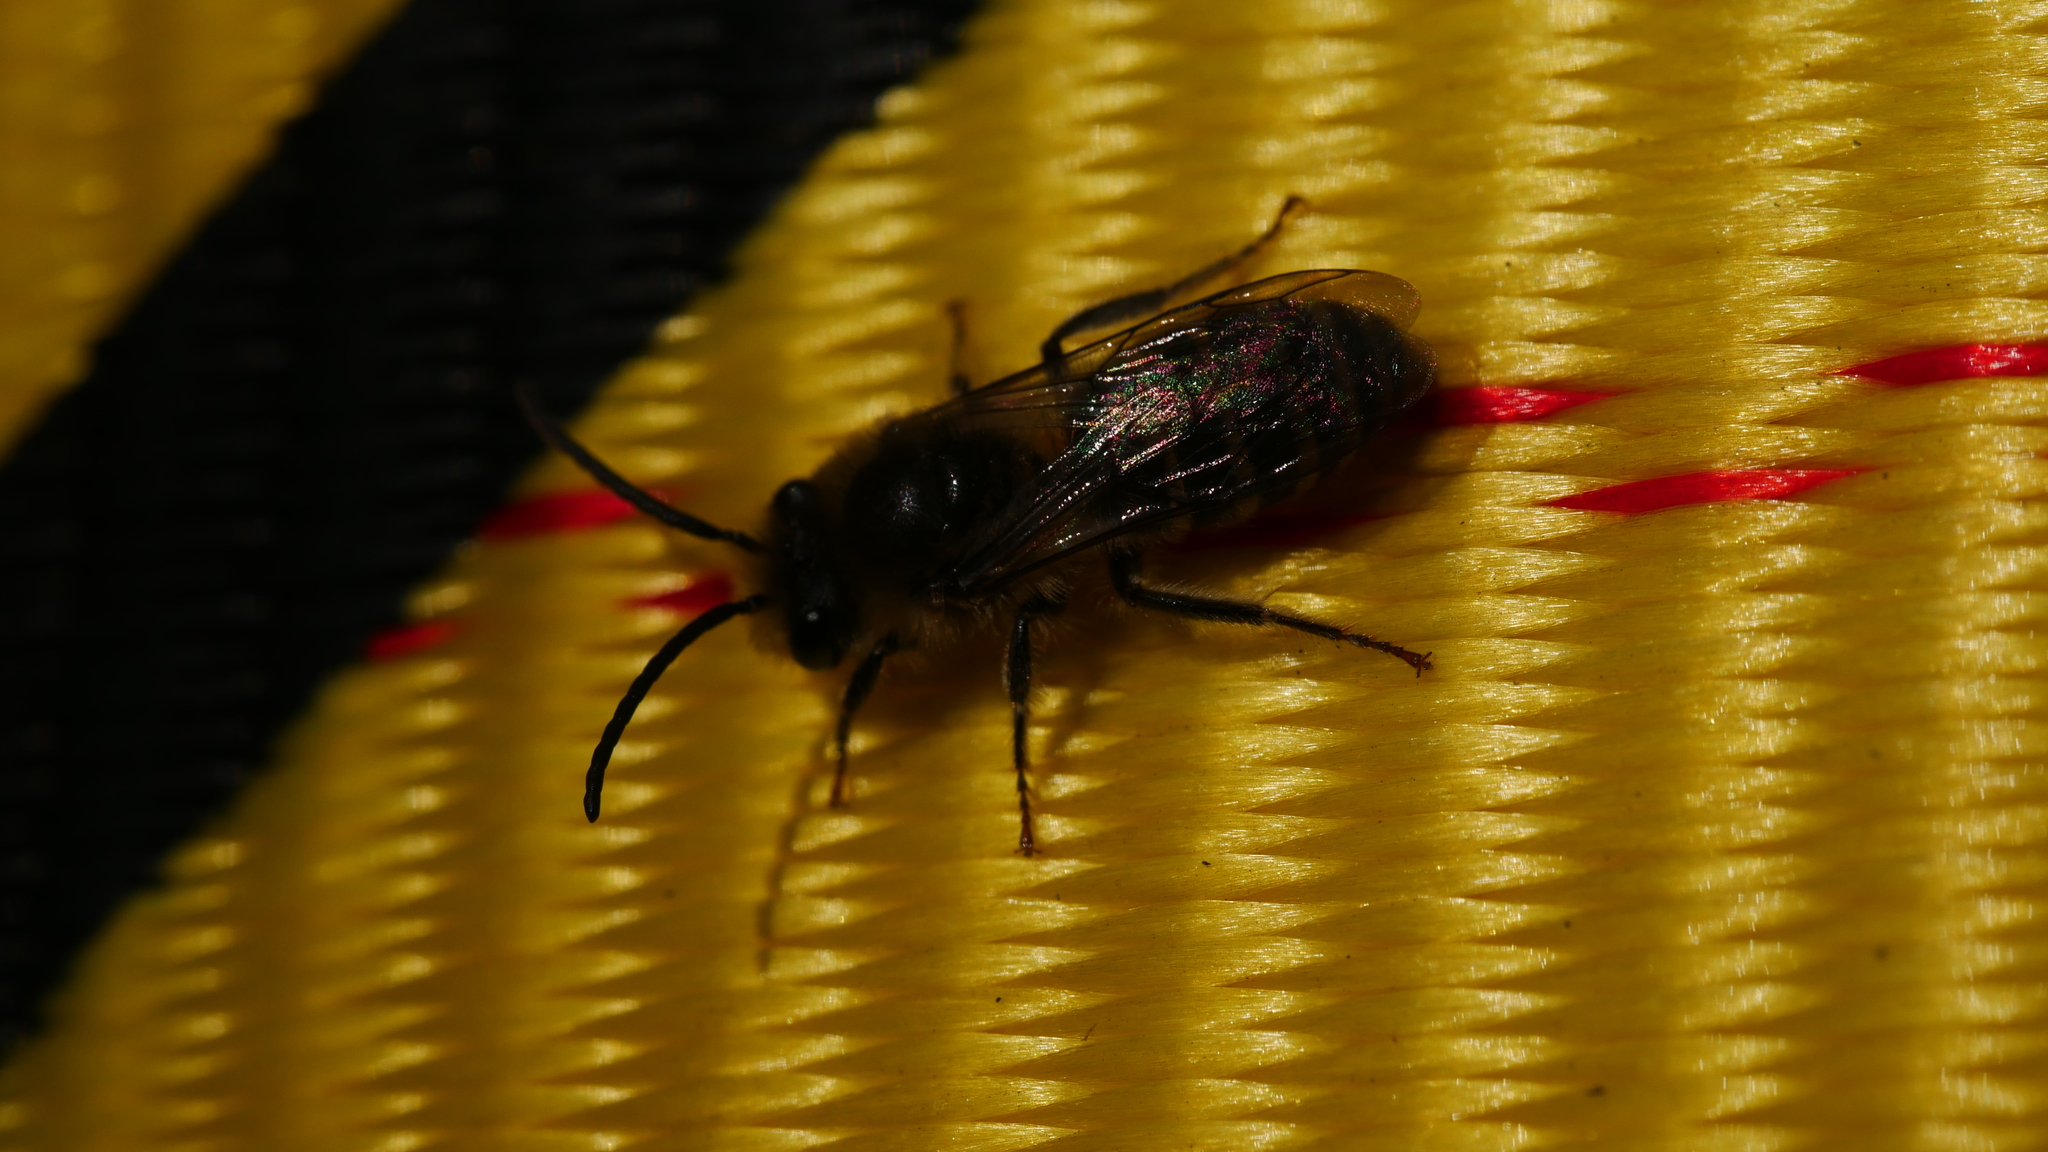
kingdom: Animalia
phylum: Arthropoda
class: Insecta
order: Hymenoptera
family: Colletidae
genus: Colletes
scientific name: Colletes inaequalis
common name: Unequal cellophane bee
